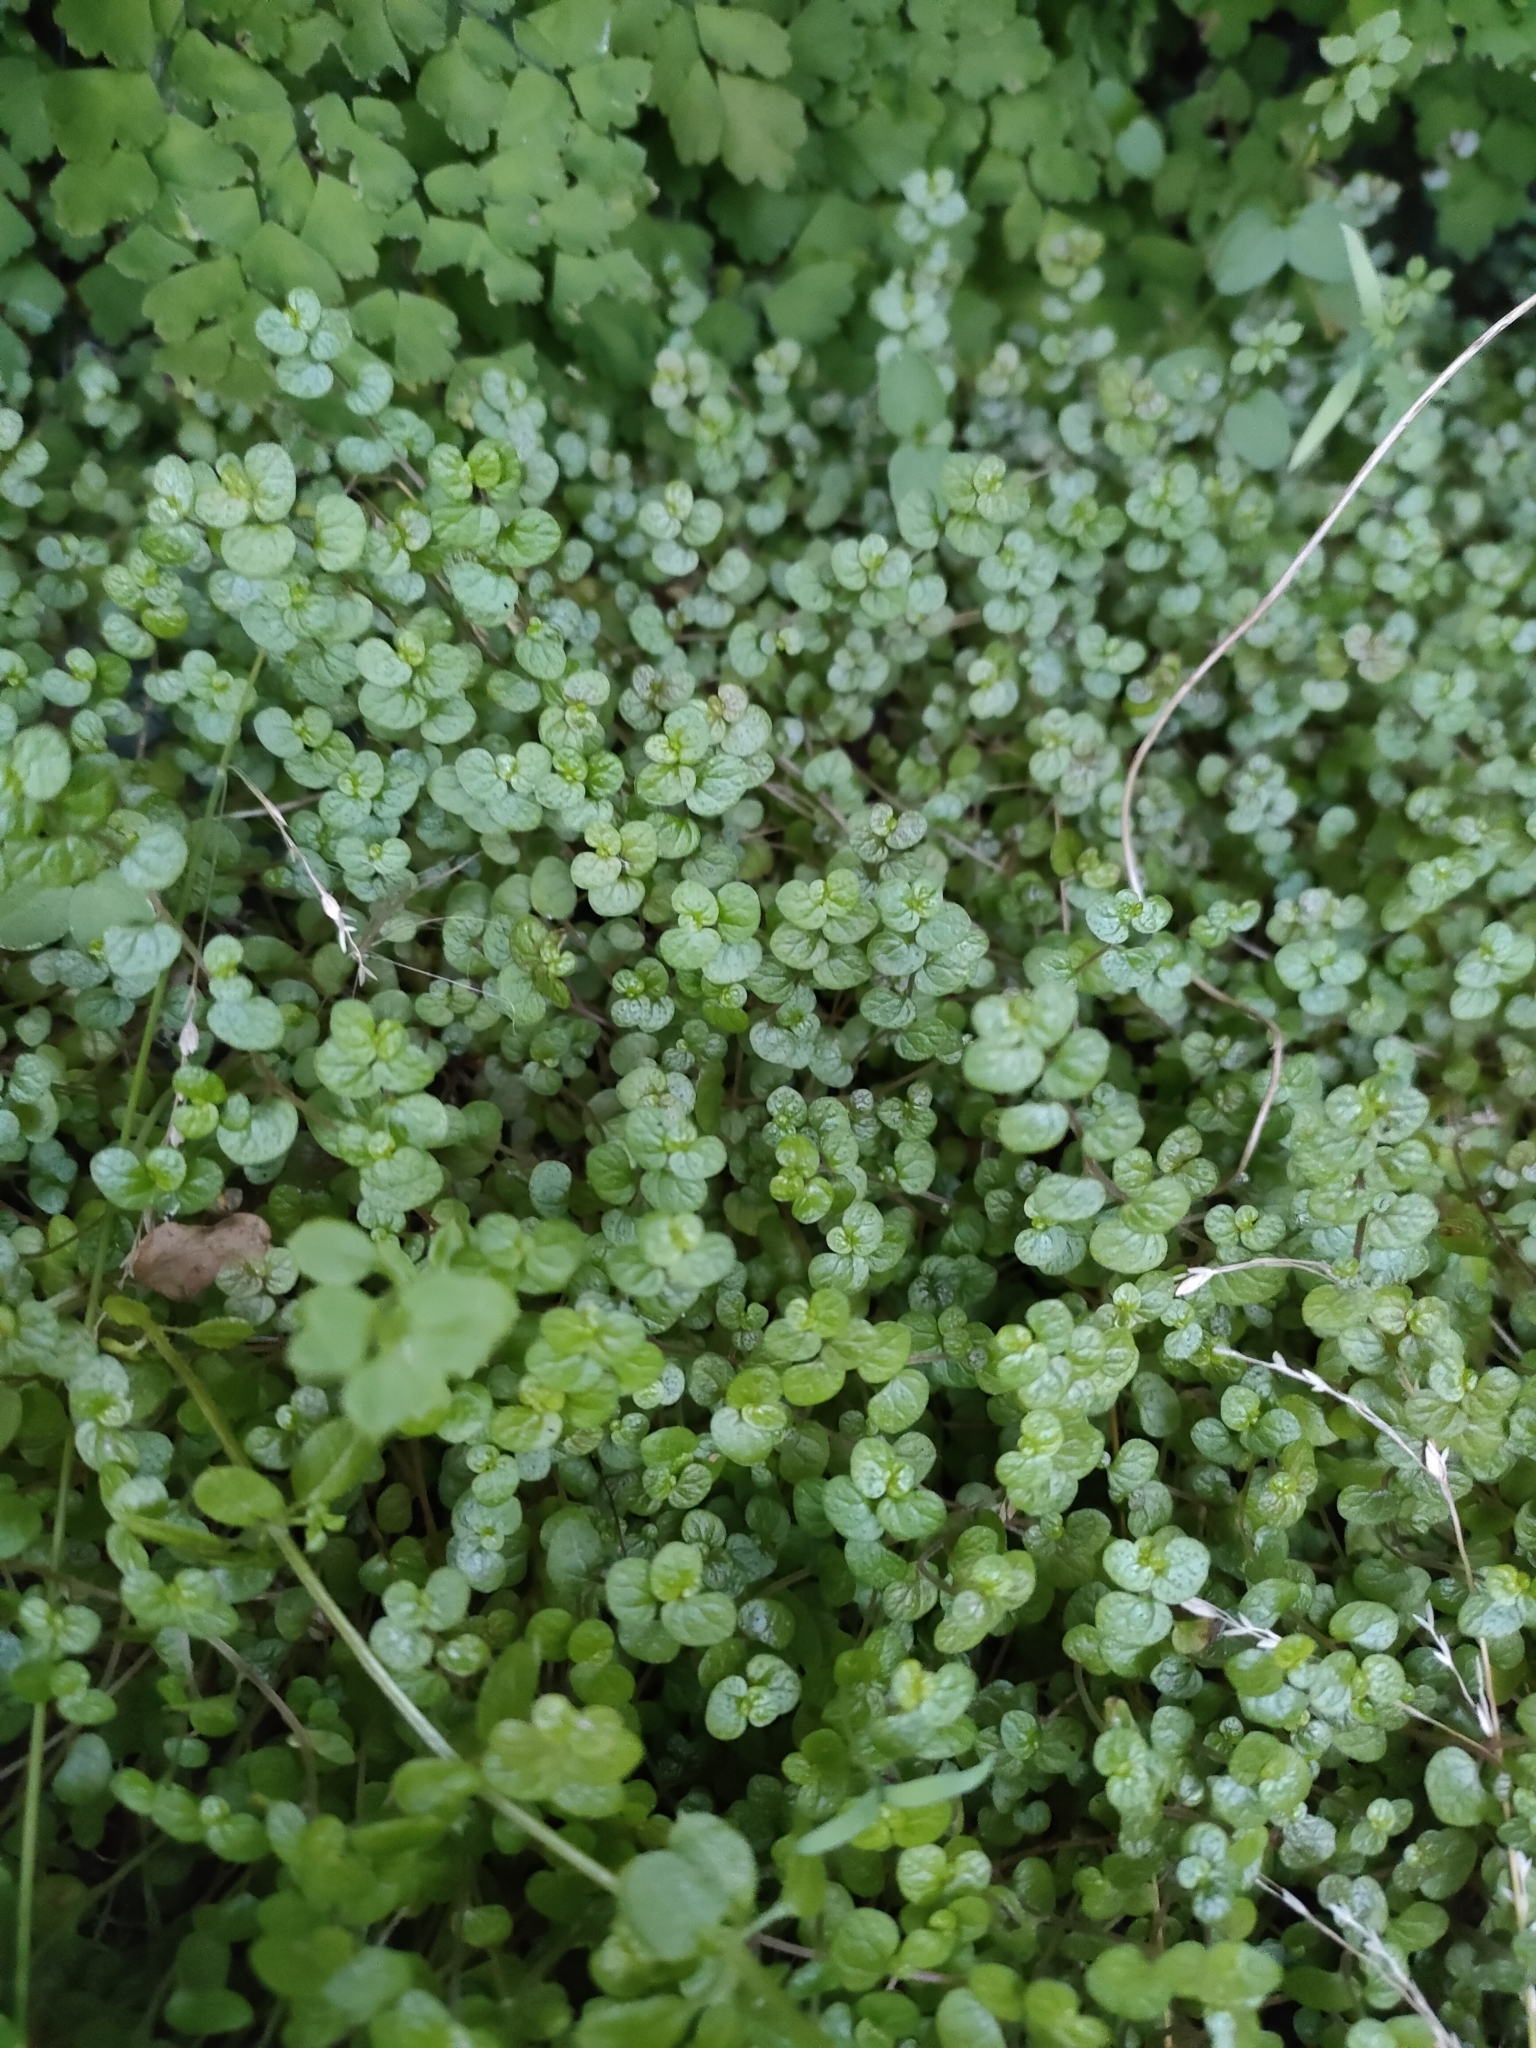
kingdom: Plantae
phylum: Tracheophyta
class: Magnoliopsida
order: Rosales
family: Urticaceae
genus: Soleirolia
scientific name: Soleirolia soleirolii
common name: Mind-your-own-business
